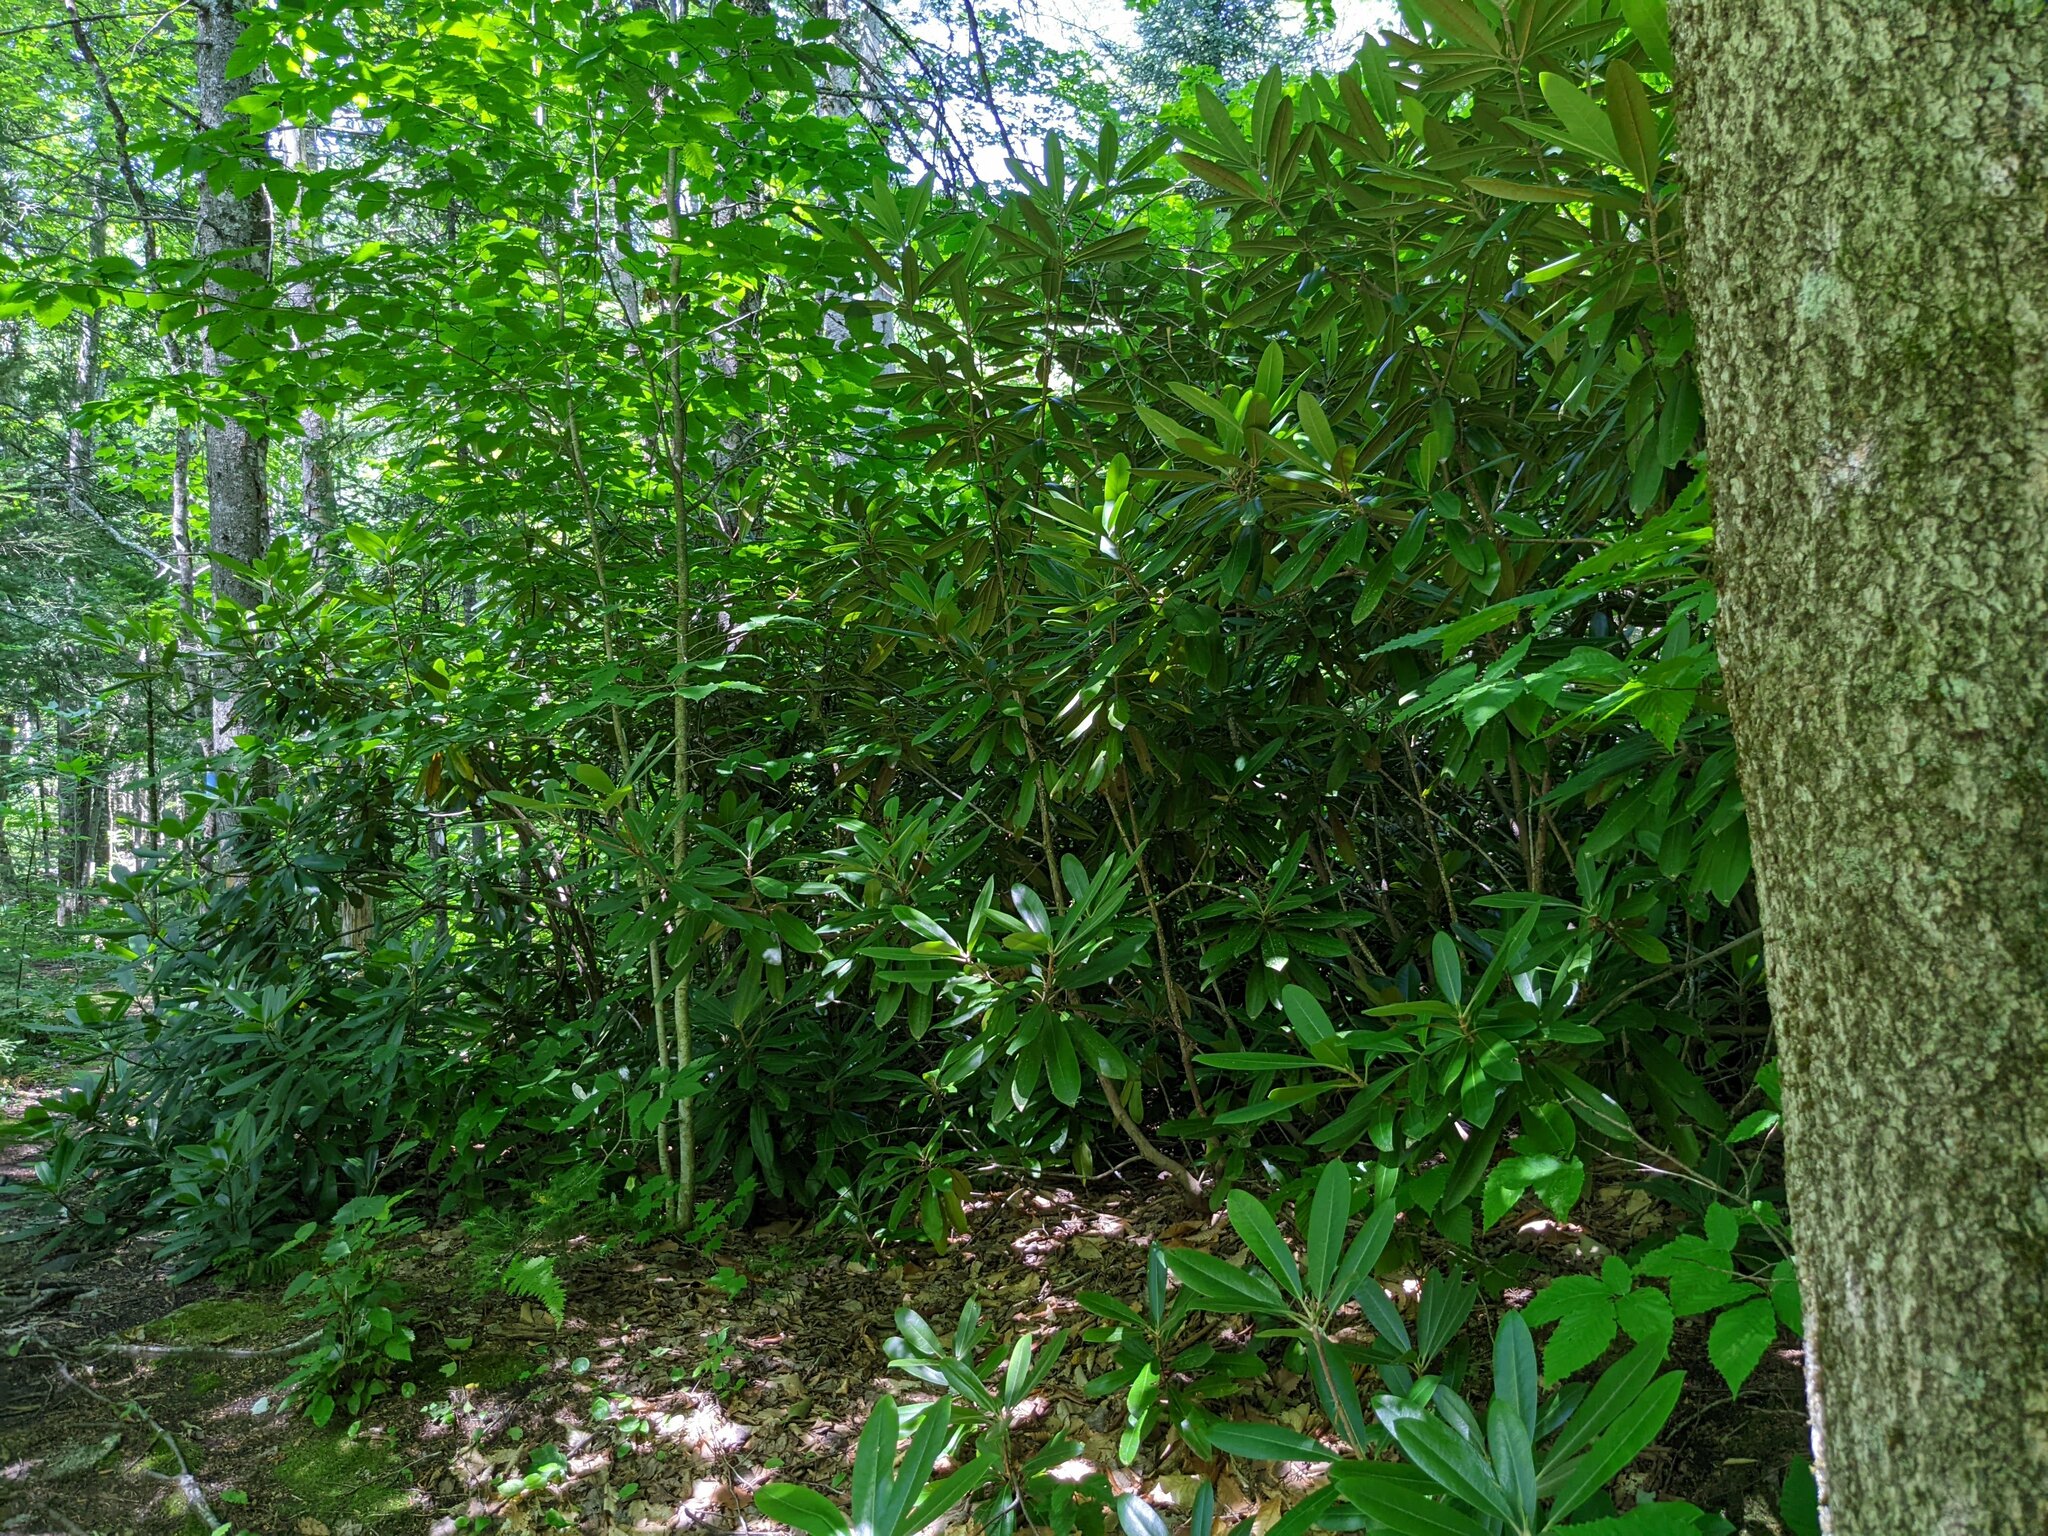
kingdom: Plantae
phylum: Tracheophyta
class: Magnoliopsida
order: Ericales
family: Ericaceae
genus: Rhododendron
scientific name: Rhododendron maximum
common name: Great rhododendron
